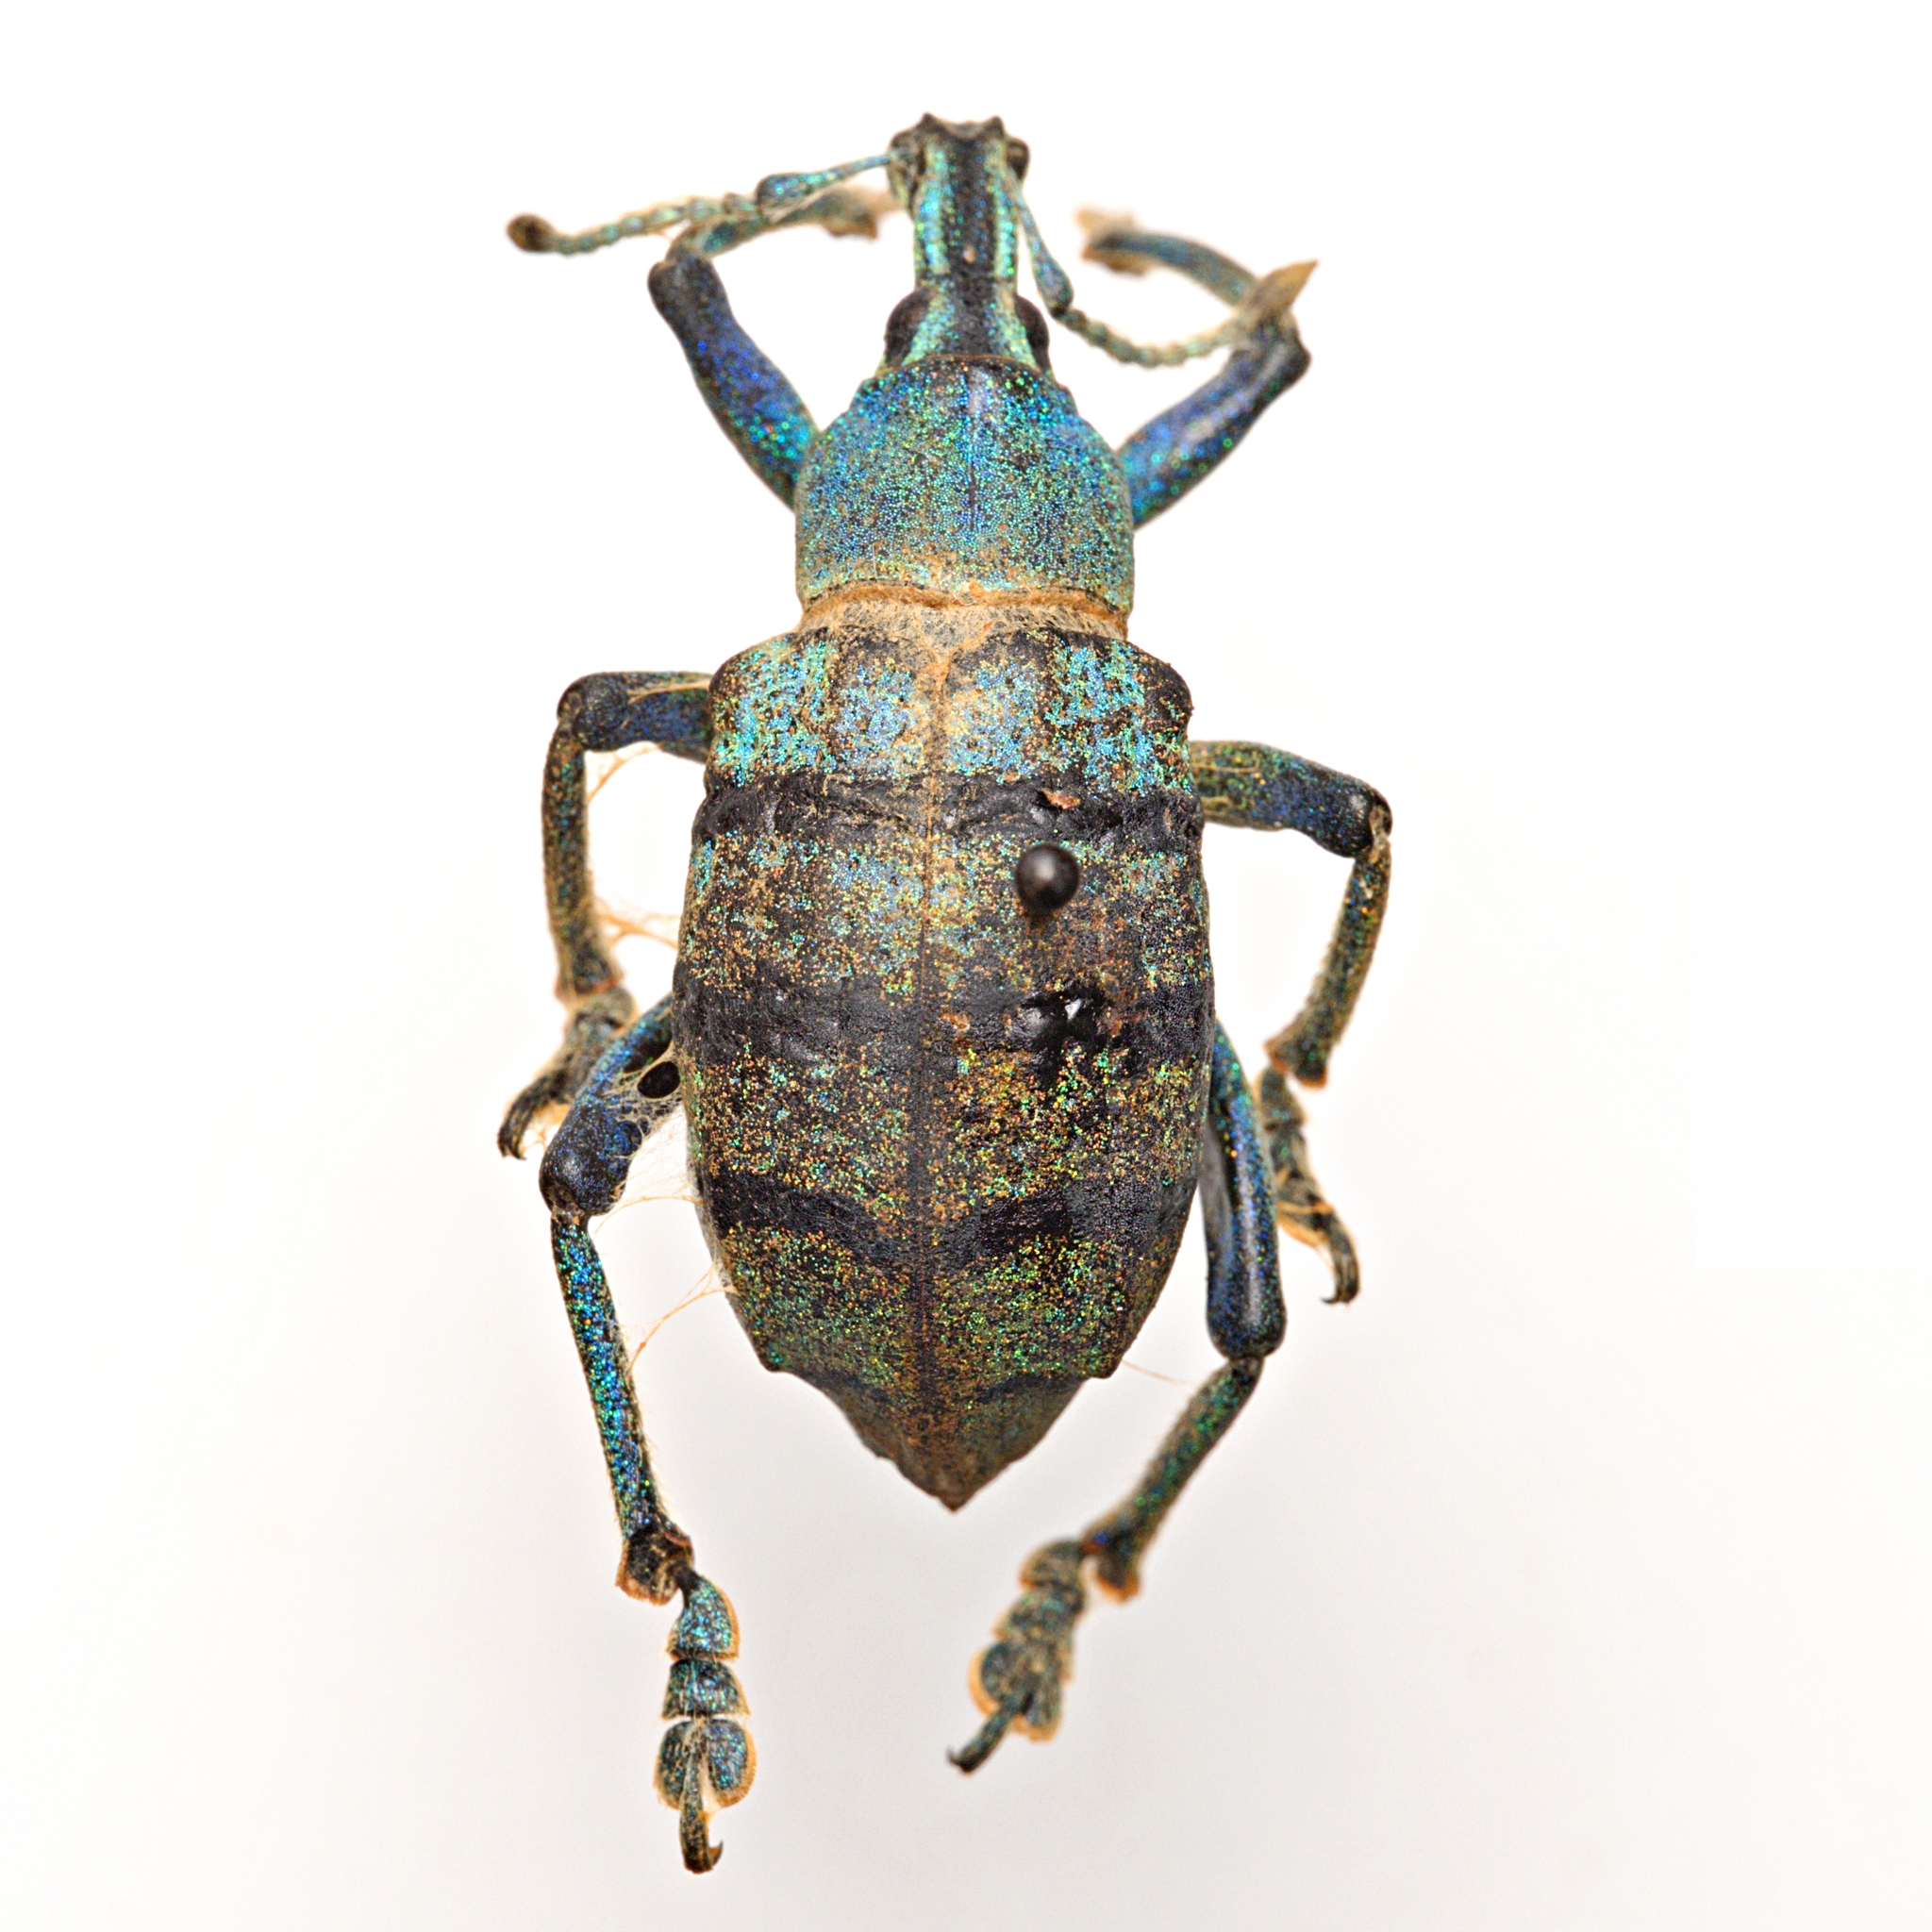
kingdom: Animalia
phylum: Arthropoda
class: Insecta
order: Coleoptera
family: Curculionidae
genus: Eupholus
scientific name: Eupholus schoenherri
